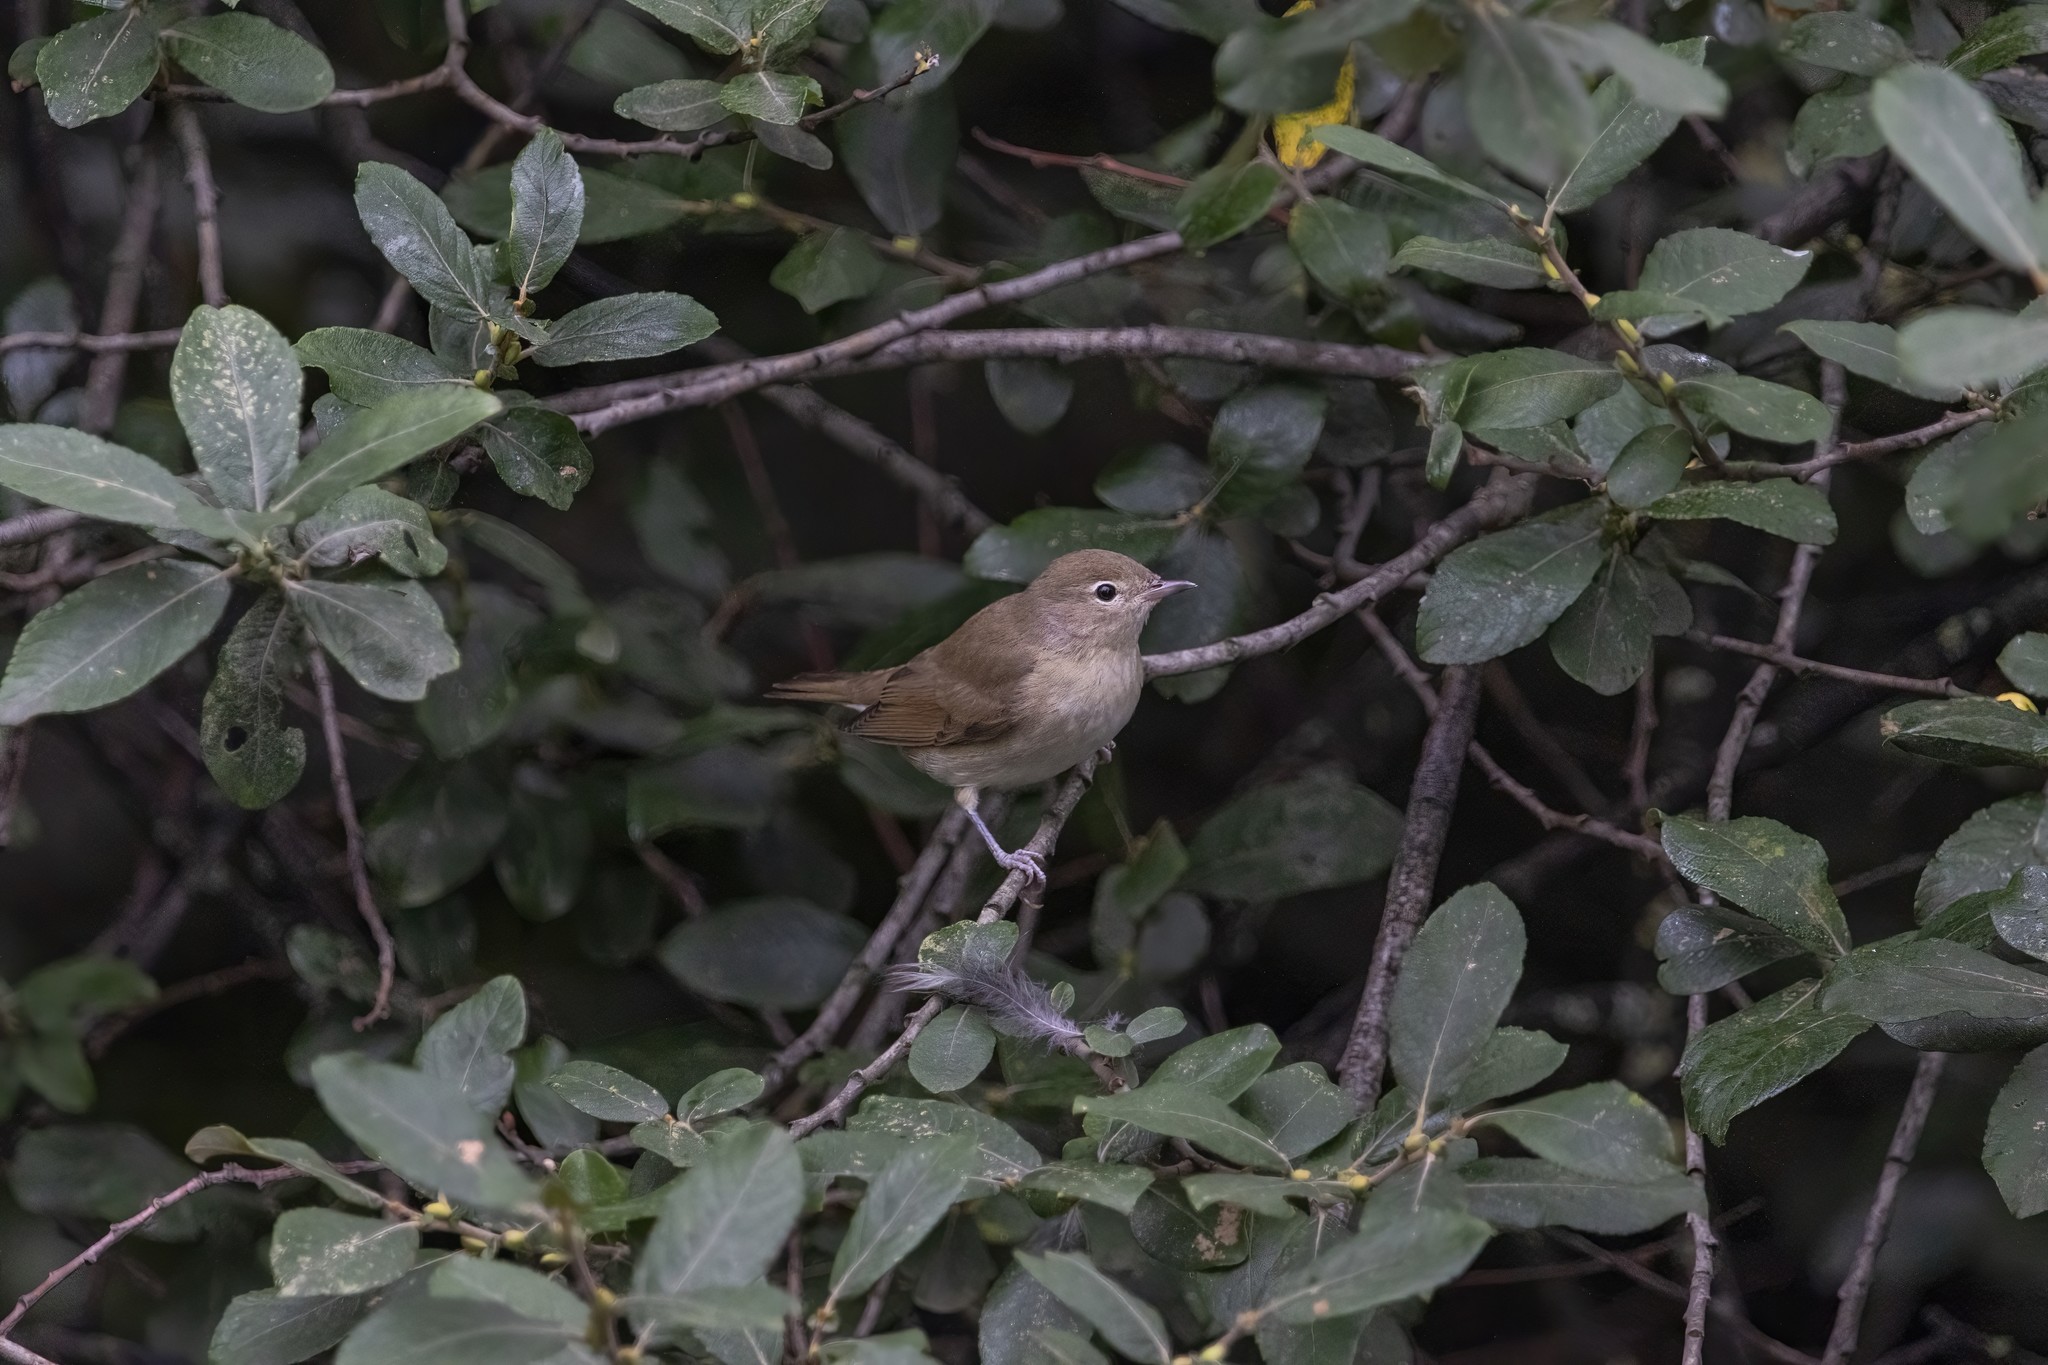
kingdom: Animalia
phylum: Chordata
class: Aves
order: Passeriformes
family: Sylviidae
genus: Sylvia
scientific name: Sylvia borin
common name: Garden warbler
